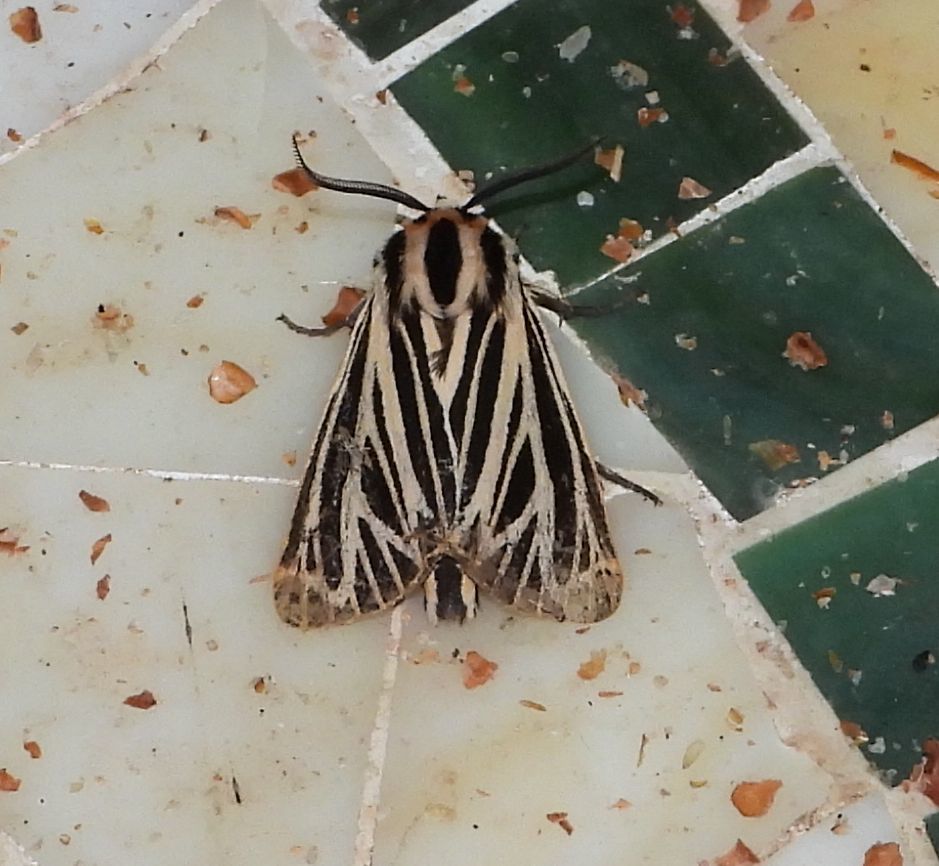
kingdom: Animalia
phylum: Arthropoda
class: Insecta
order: Lepidoptera
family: Erebidae
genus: Grammia
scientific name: Grammia virguncula
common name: Little tiger moth
